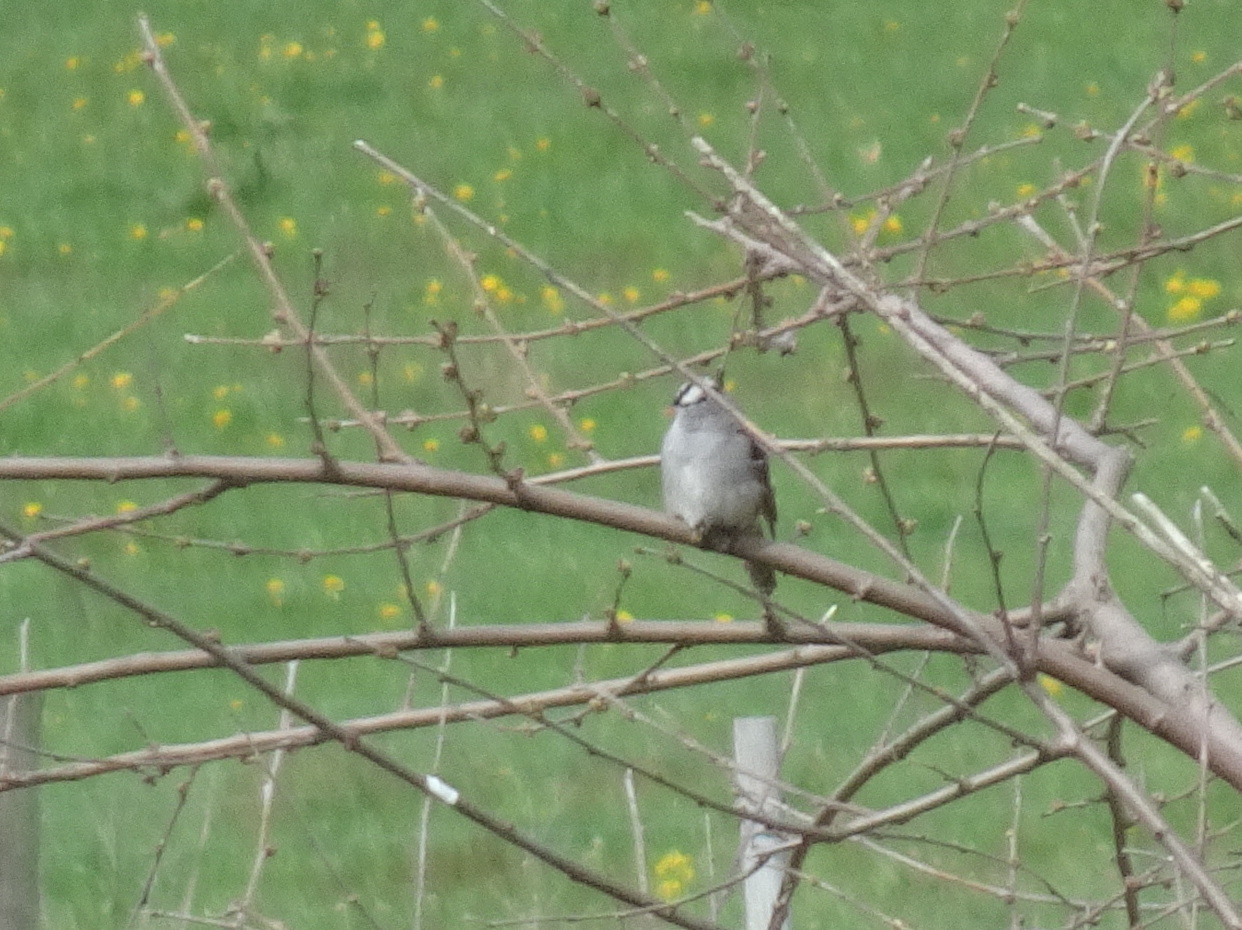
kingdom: Animalia
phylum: Chordata
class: Aves
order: Passeriformes
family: Passerellidae
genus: Zonotrichia
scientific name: Zonotrichia leucophrys
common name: White-crowned sparrow
